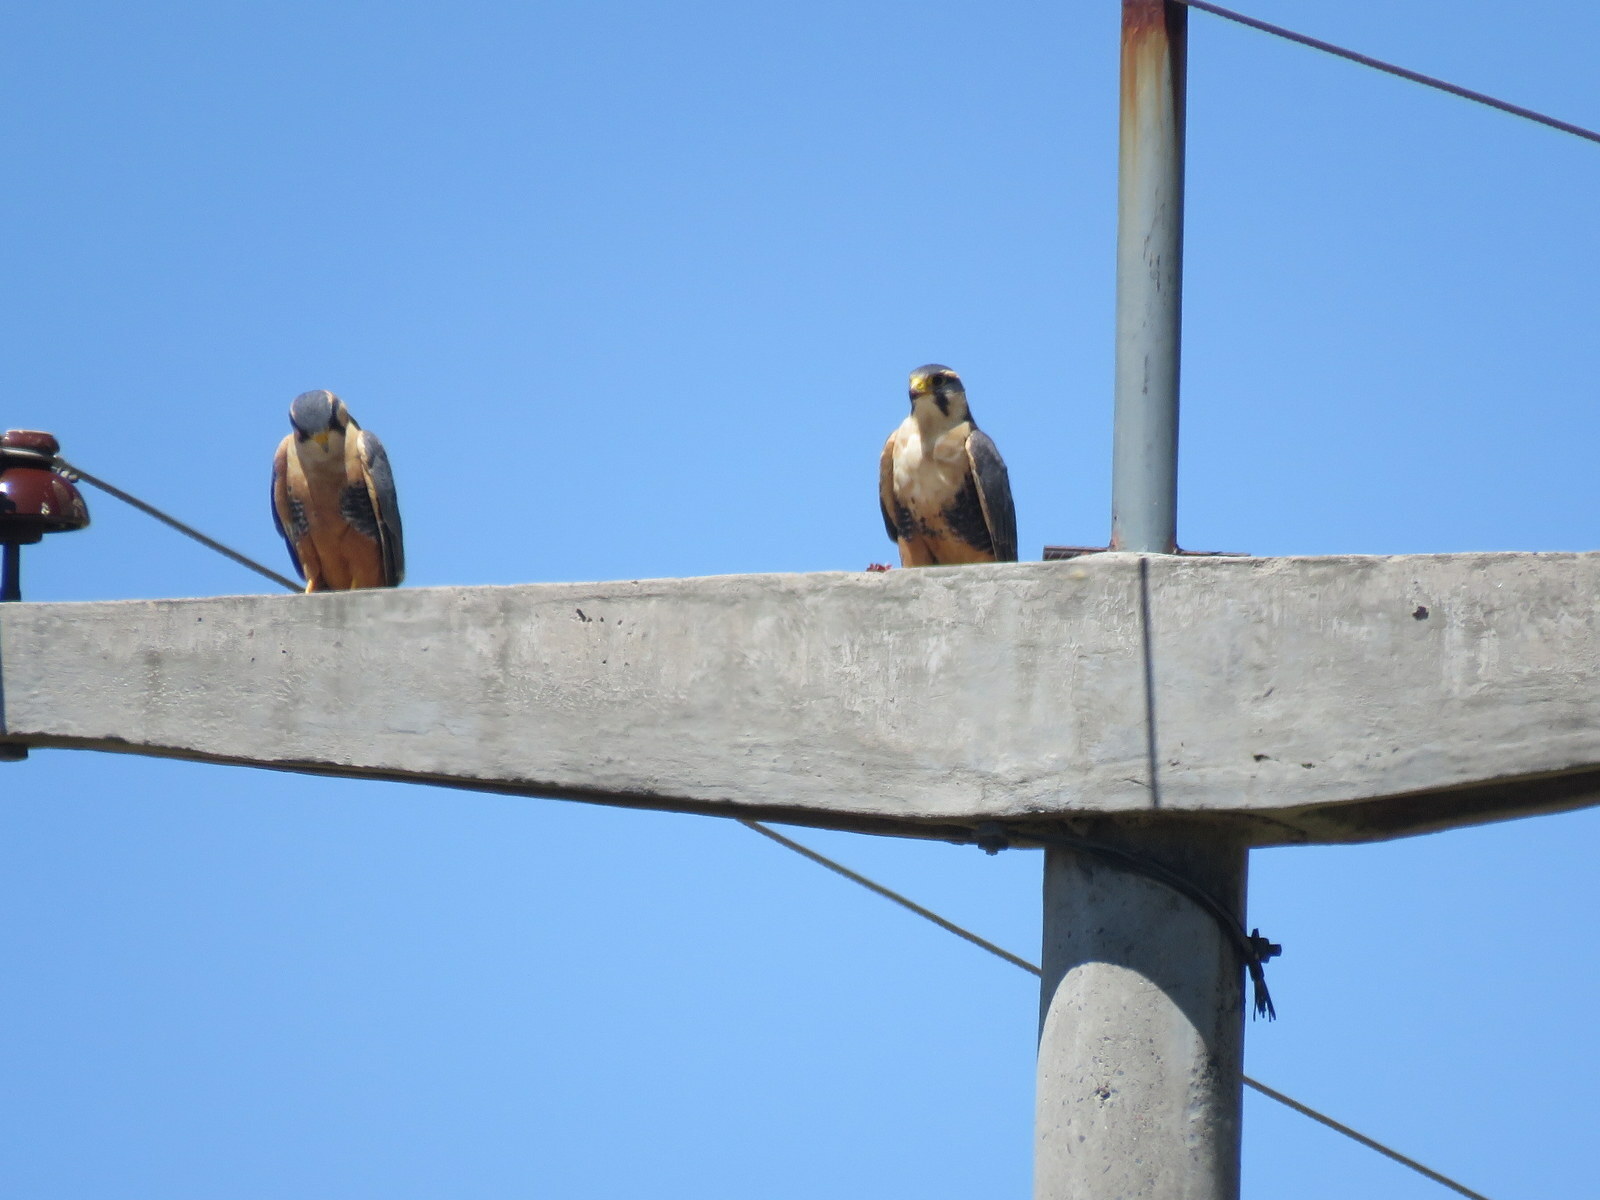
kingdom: Animalia
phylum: Chordata
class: Aves
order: Falconiformes
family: Falconidae
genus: Falco
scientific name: Falco femoralis
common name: Aplomado falcon
